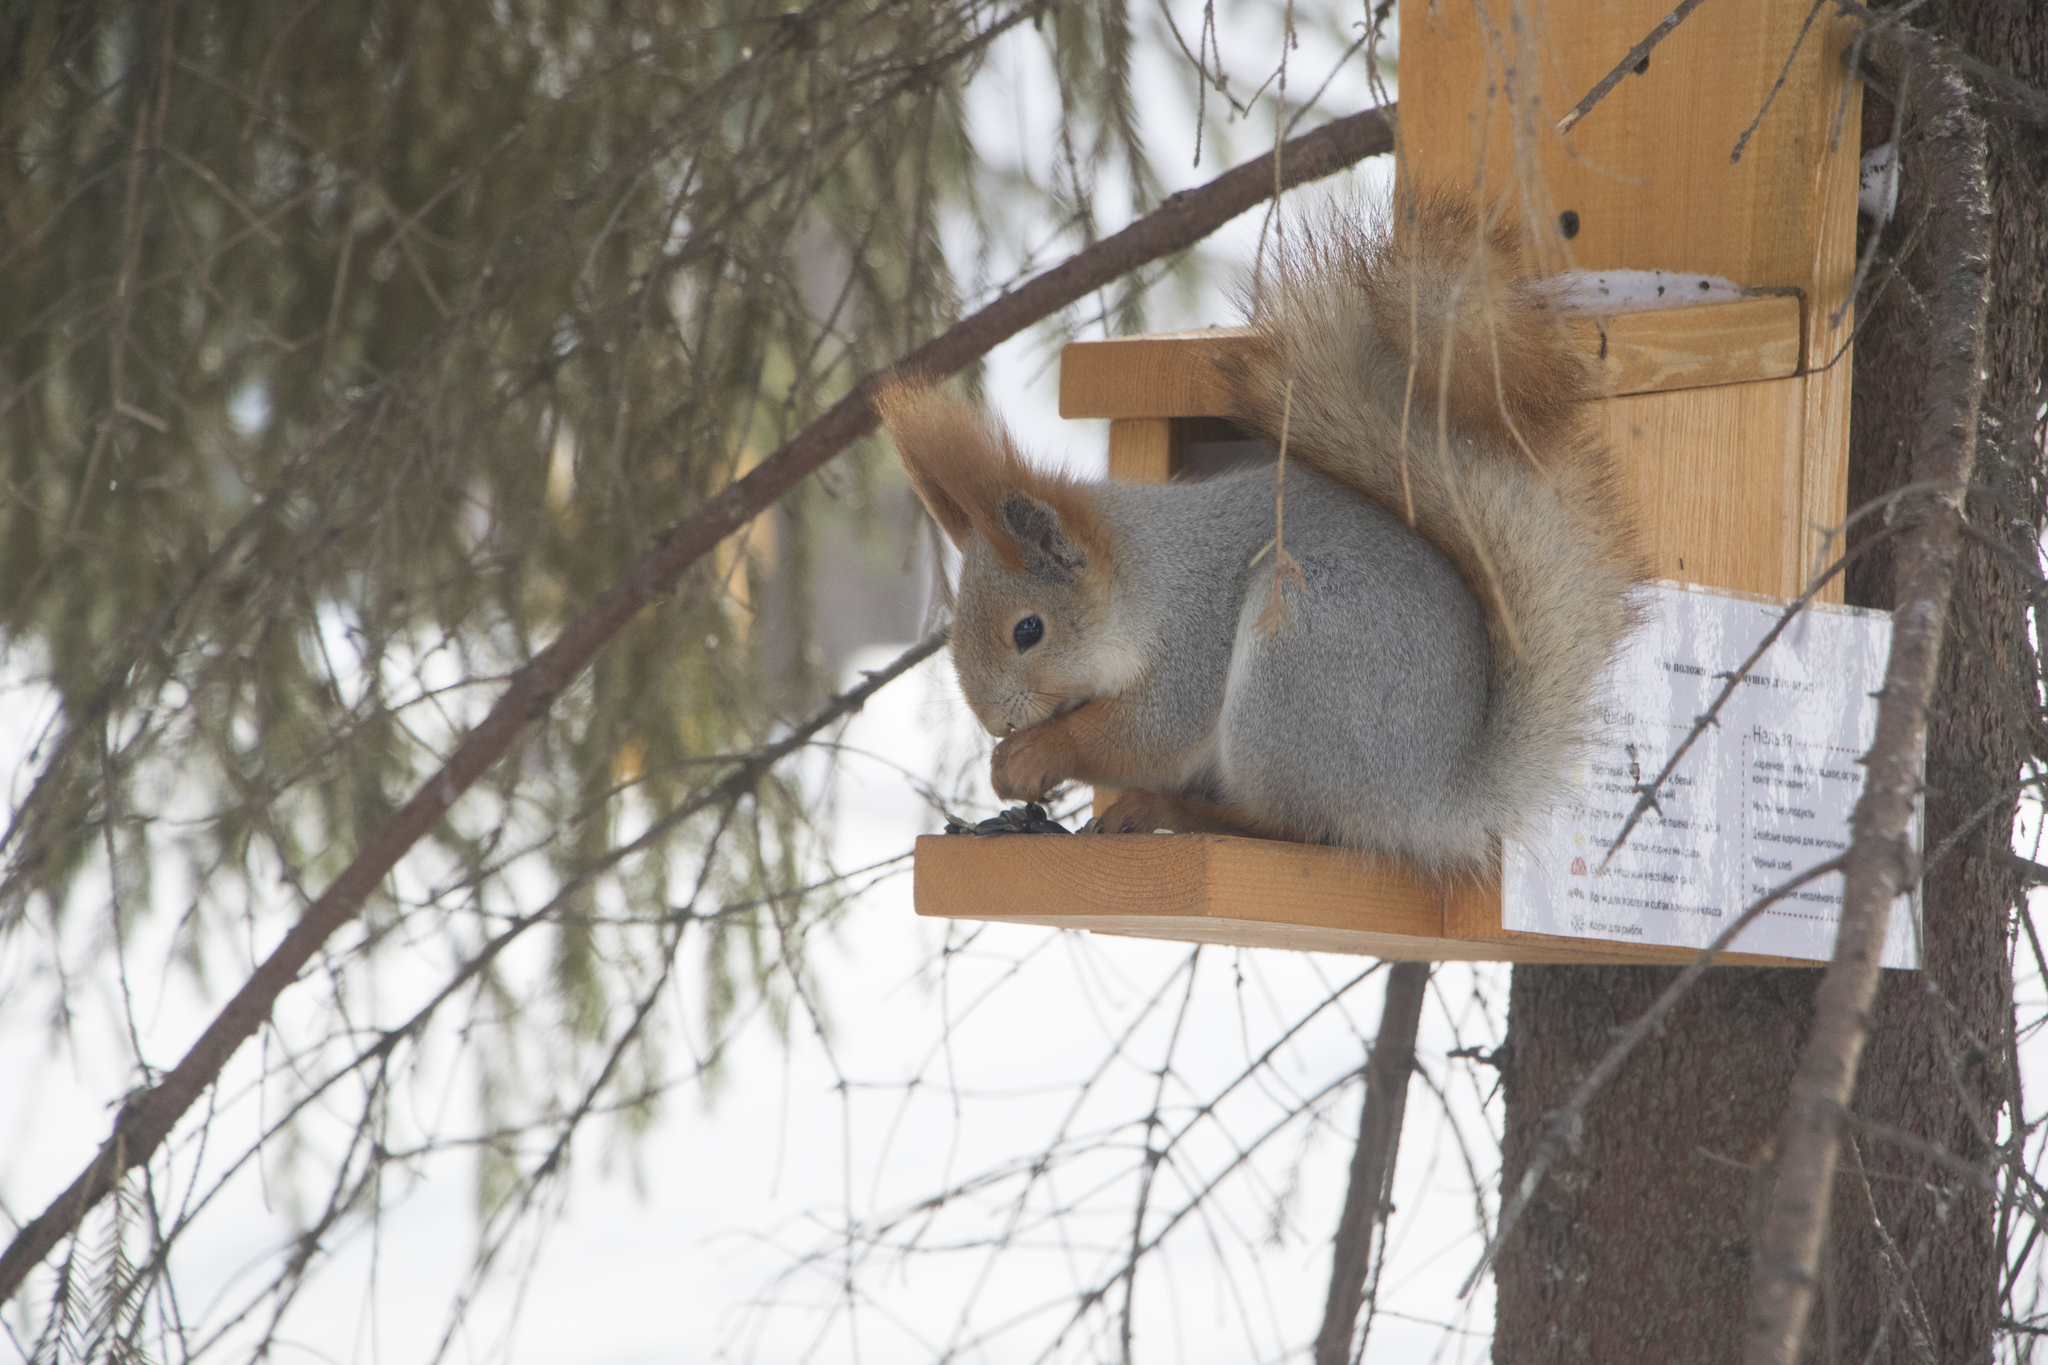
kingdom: Animalia
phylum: Chordata
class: Mammalia
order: Rodentia
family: Sciuridae
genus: Sciurus
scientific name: Sciurus vulgaris
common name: Eurasian red squirrel
